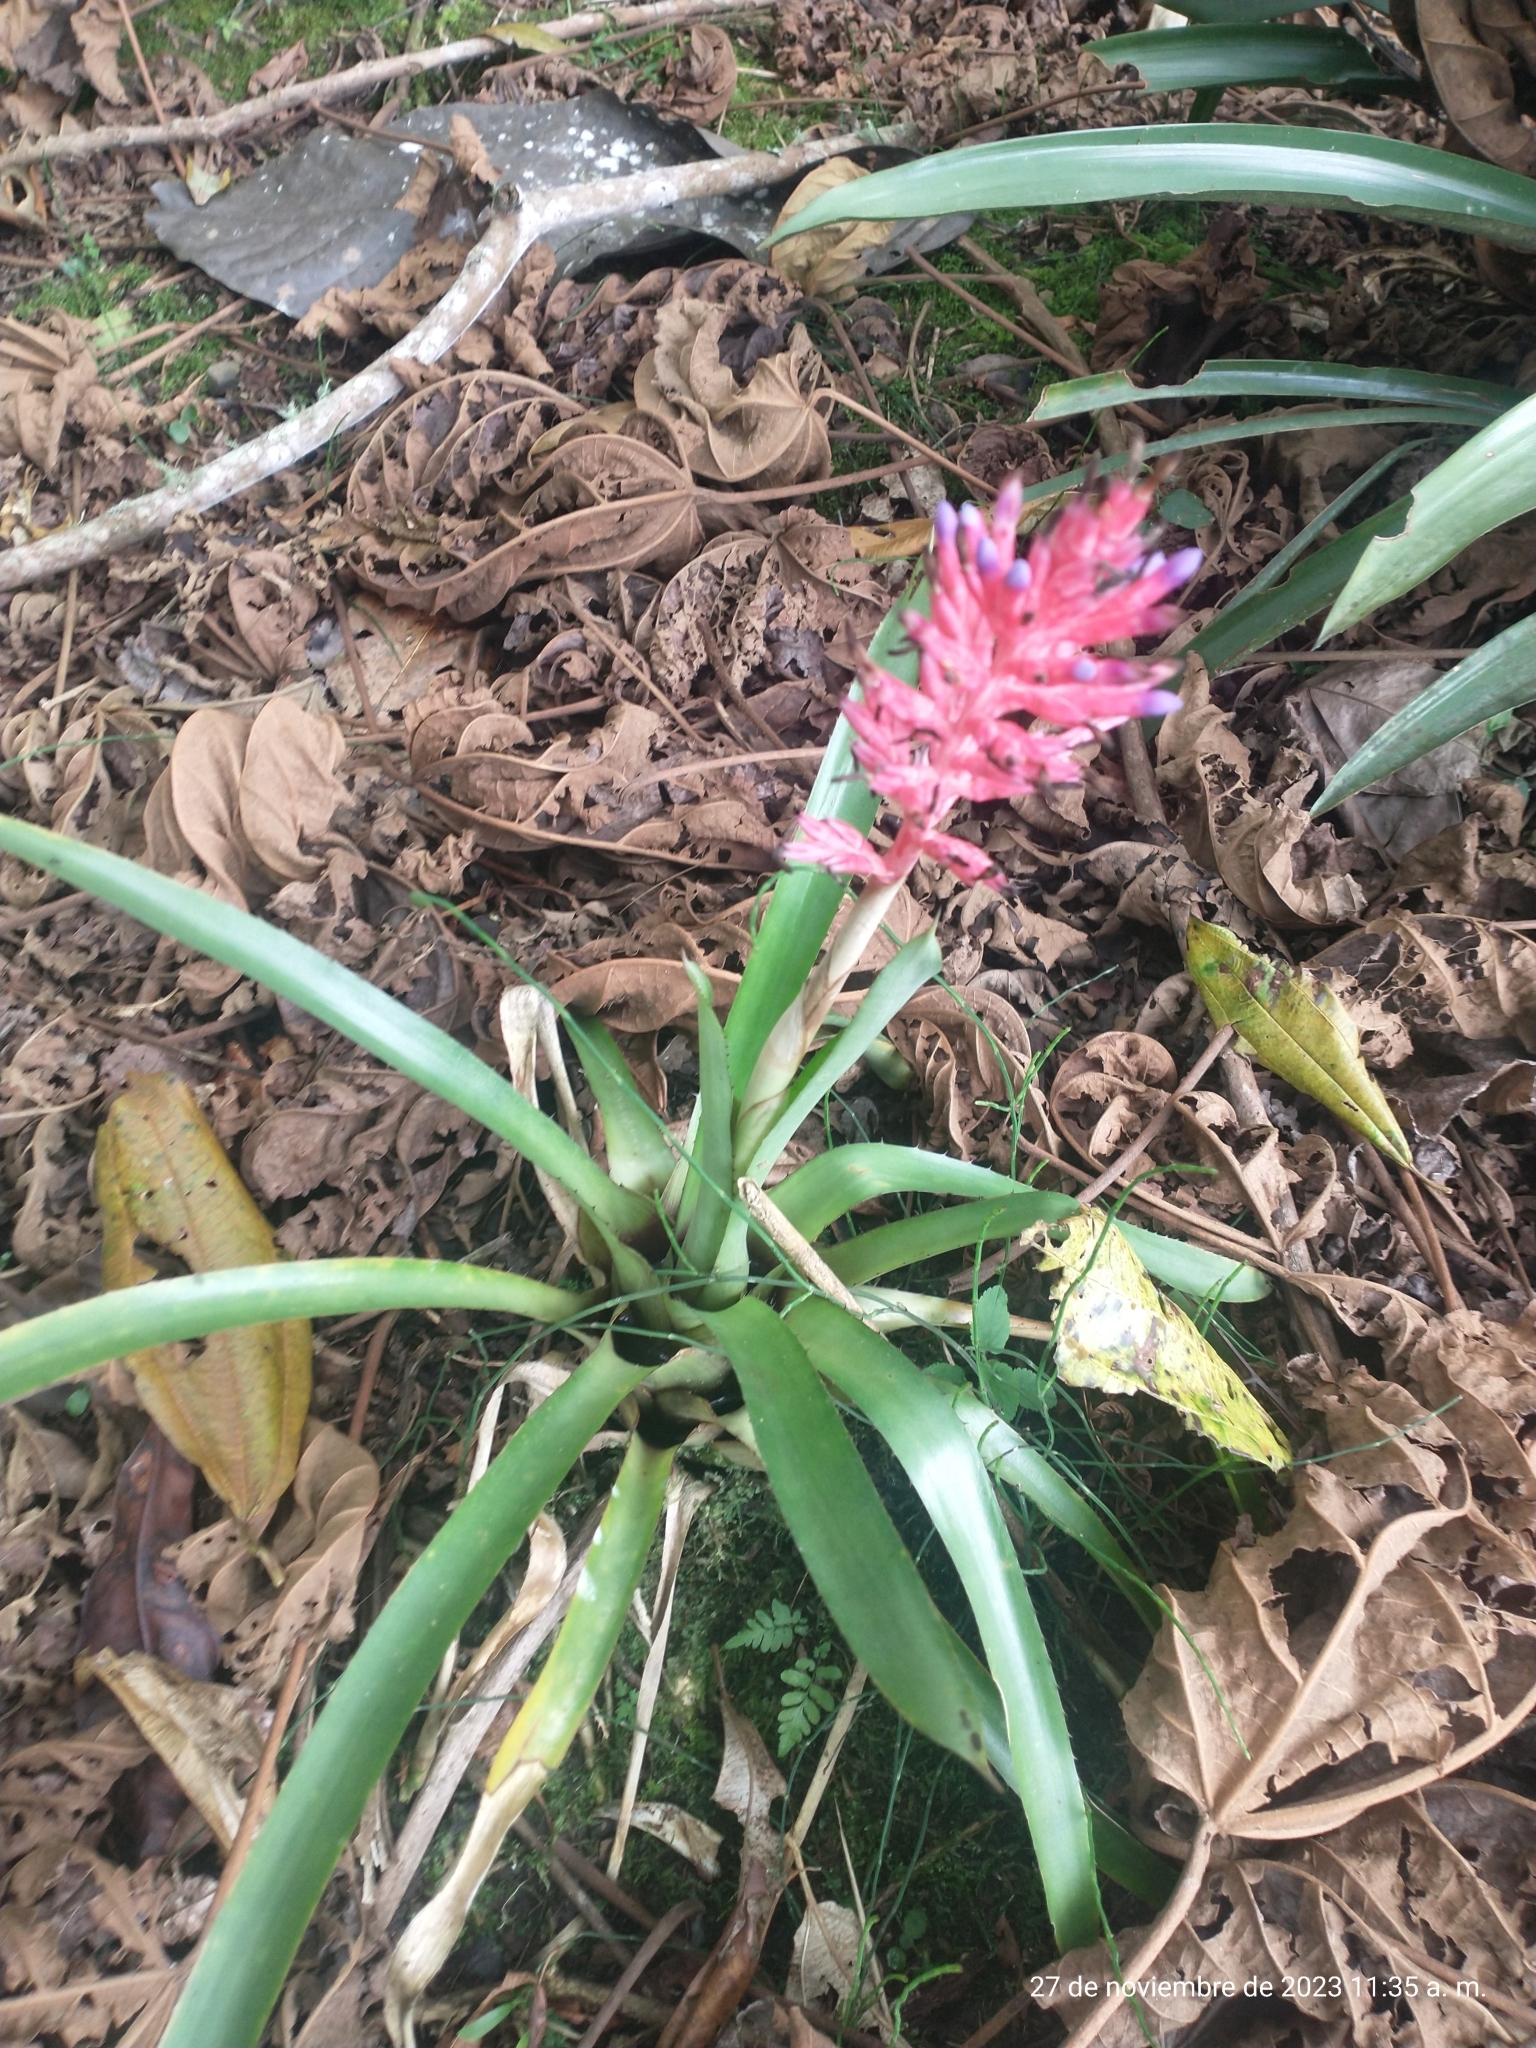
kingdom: Plantae
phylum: Tracheophyta
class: Liliopsida
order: Poales
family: Bromeliaceae
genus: Aechmea
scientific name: Aechmea distichantha
